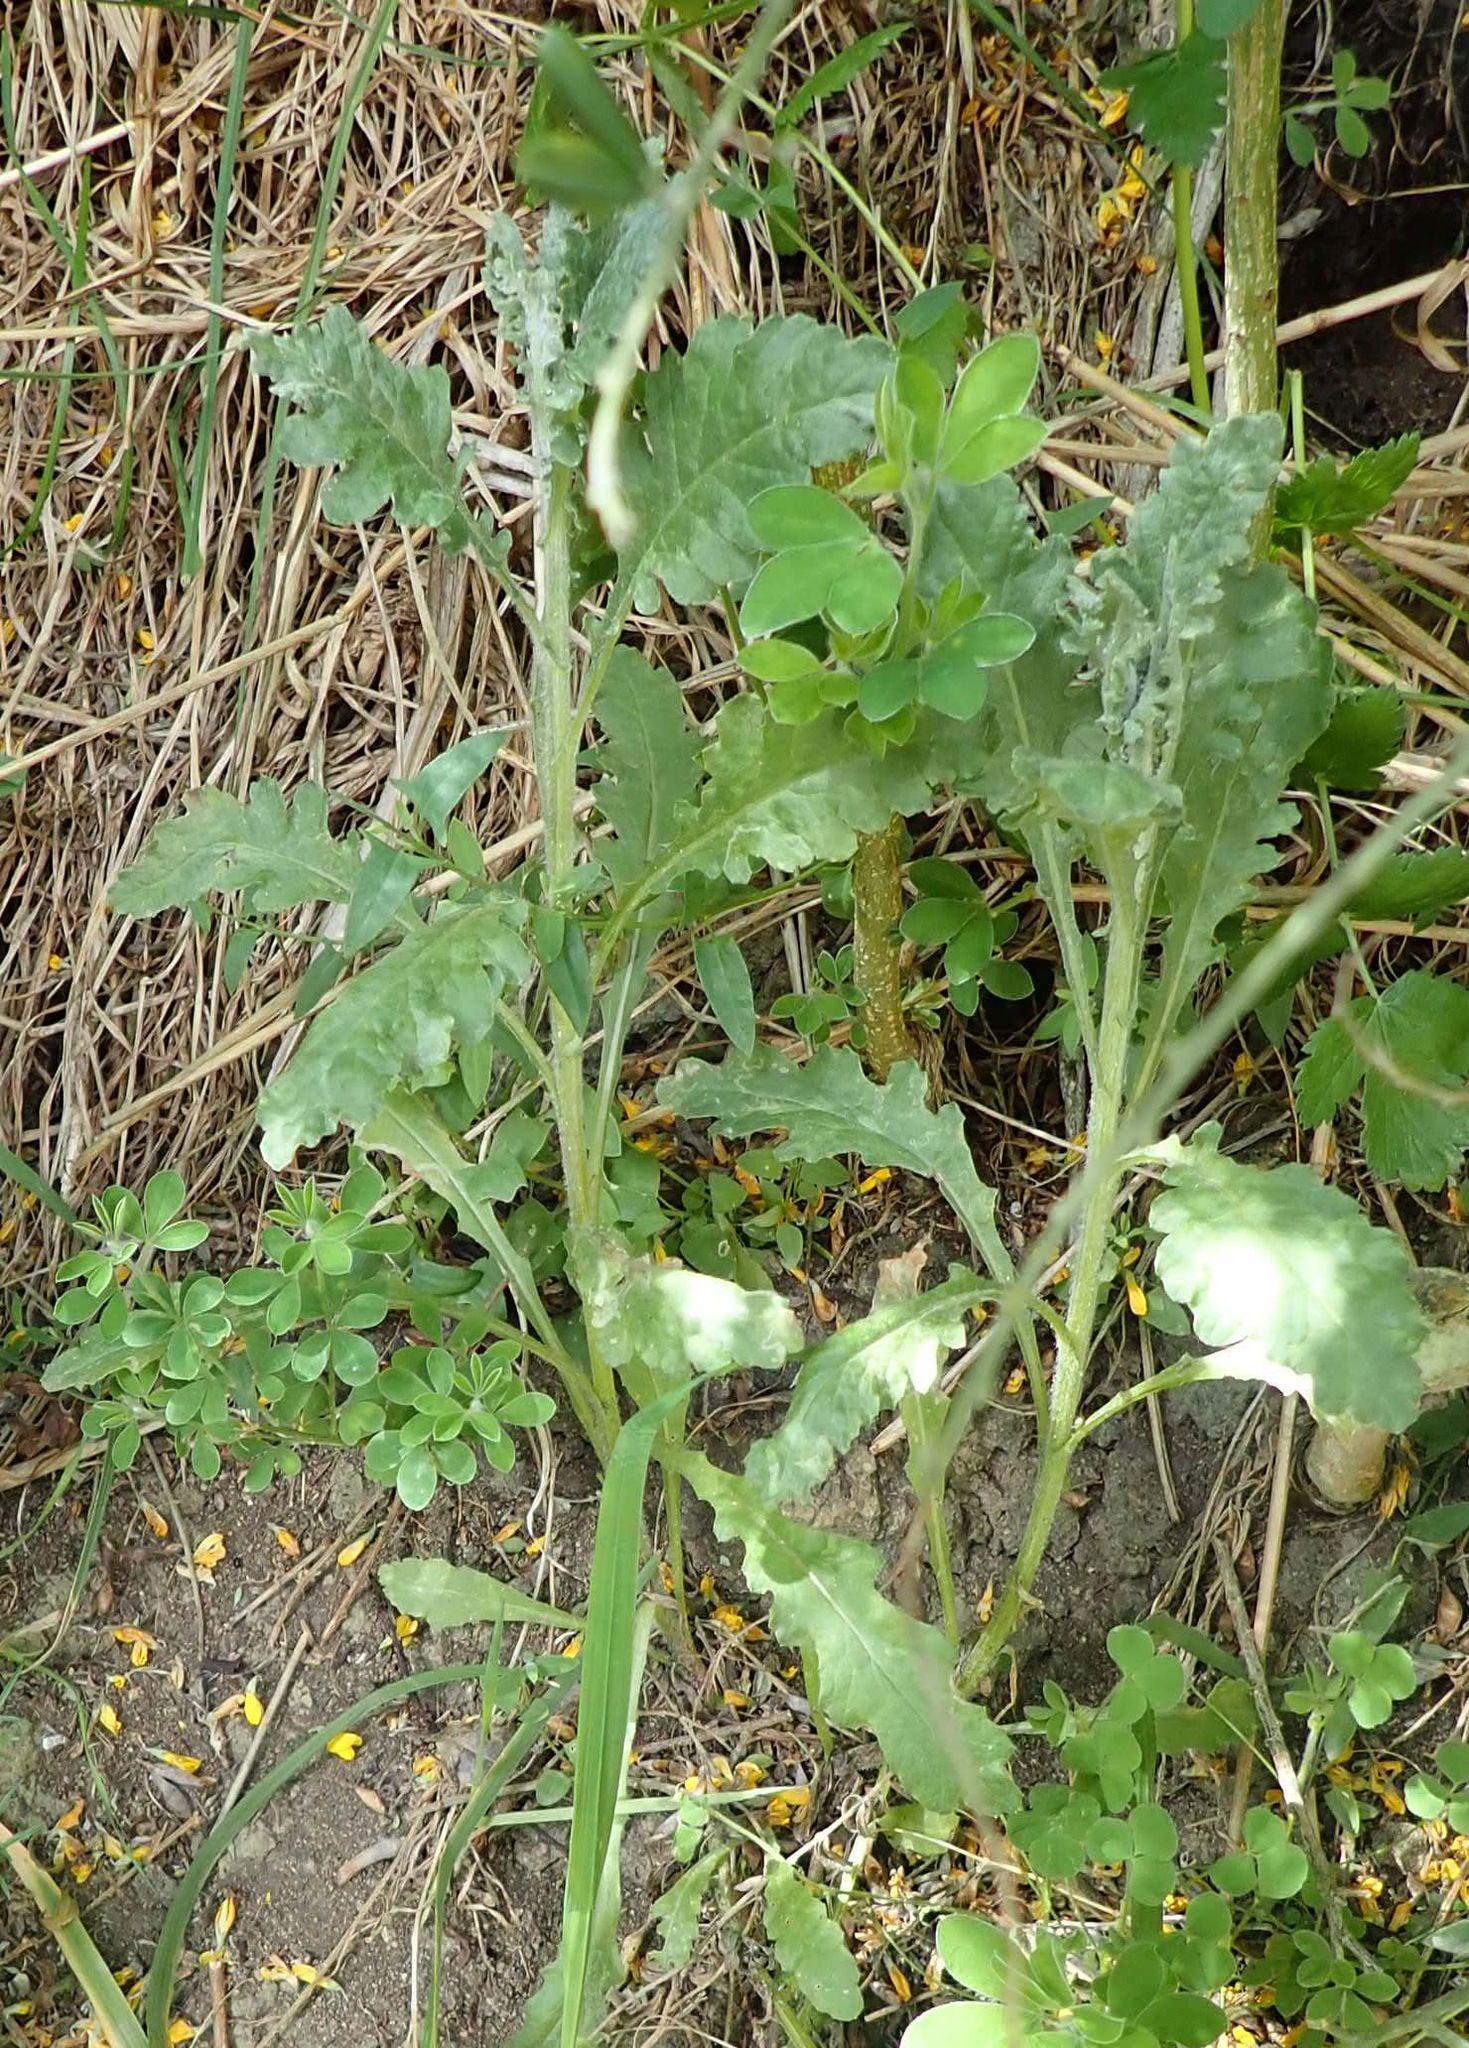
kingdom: Plantae
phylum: Tracheophyta
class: Magnoliopsida
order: Asterales
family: Asteraceae
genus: Senecio
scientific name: Senecio glomeratus
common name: Cutleaf burnweed
